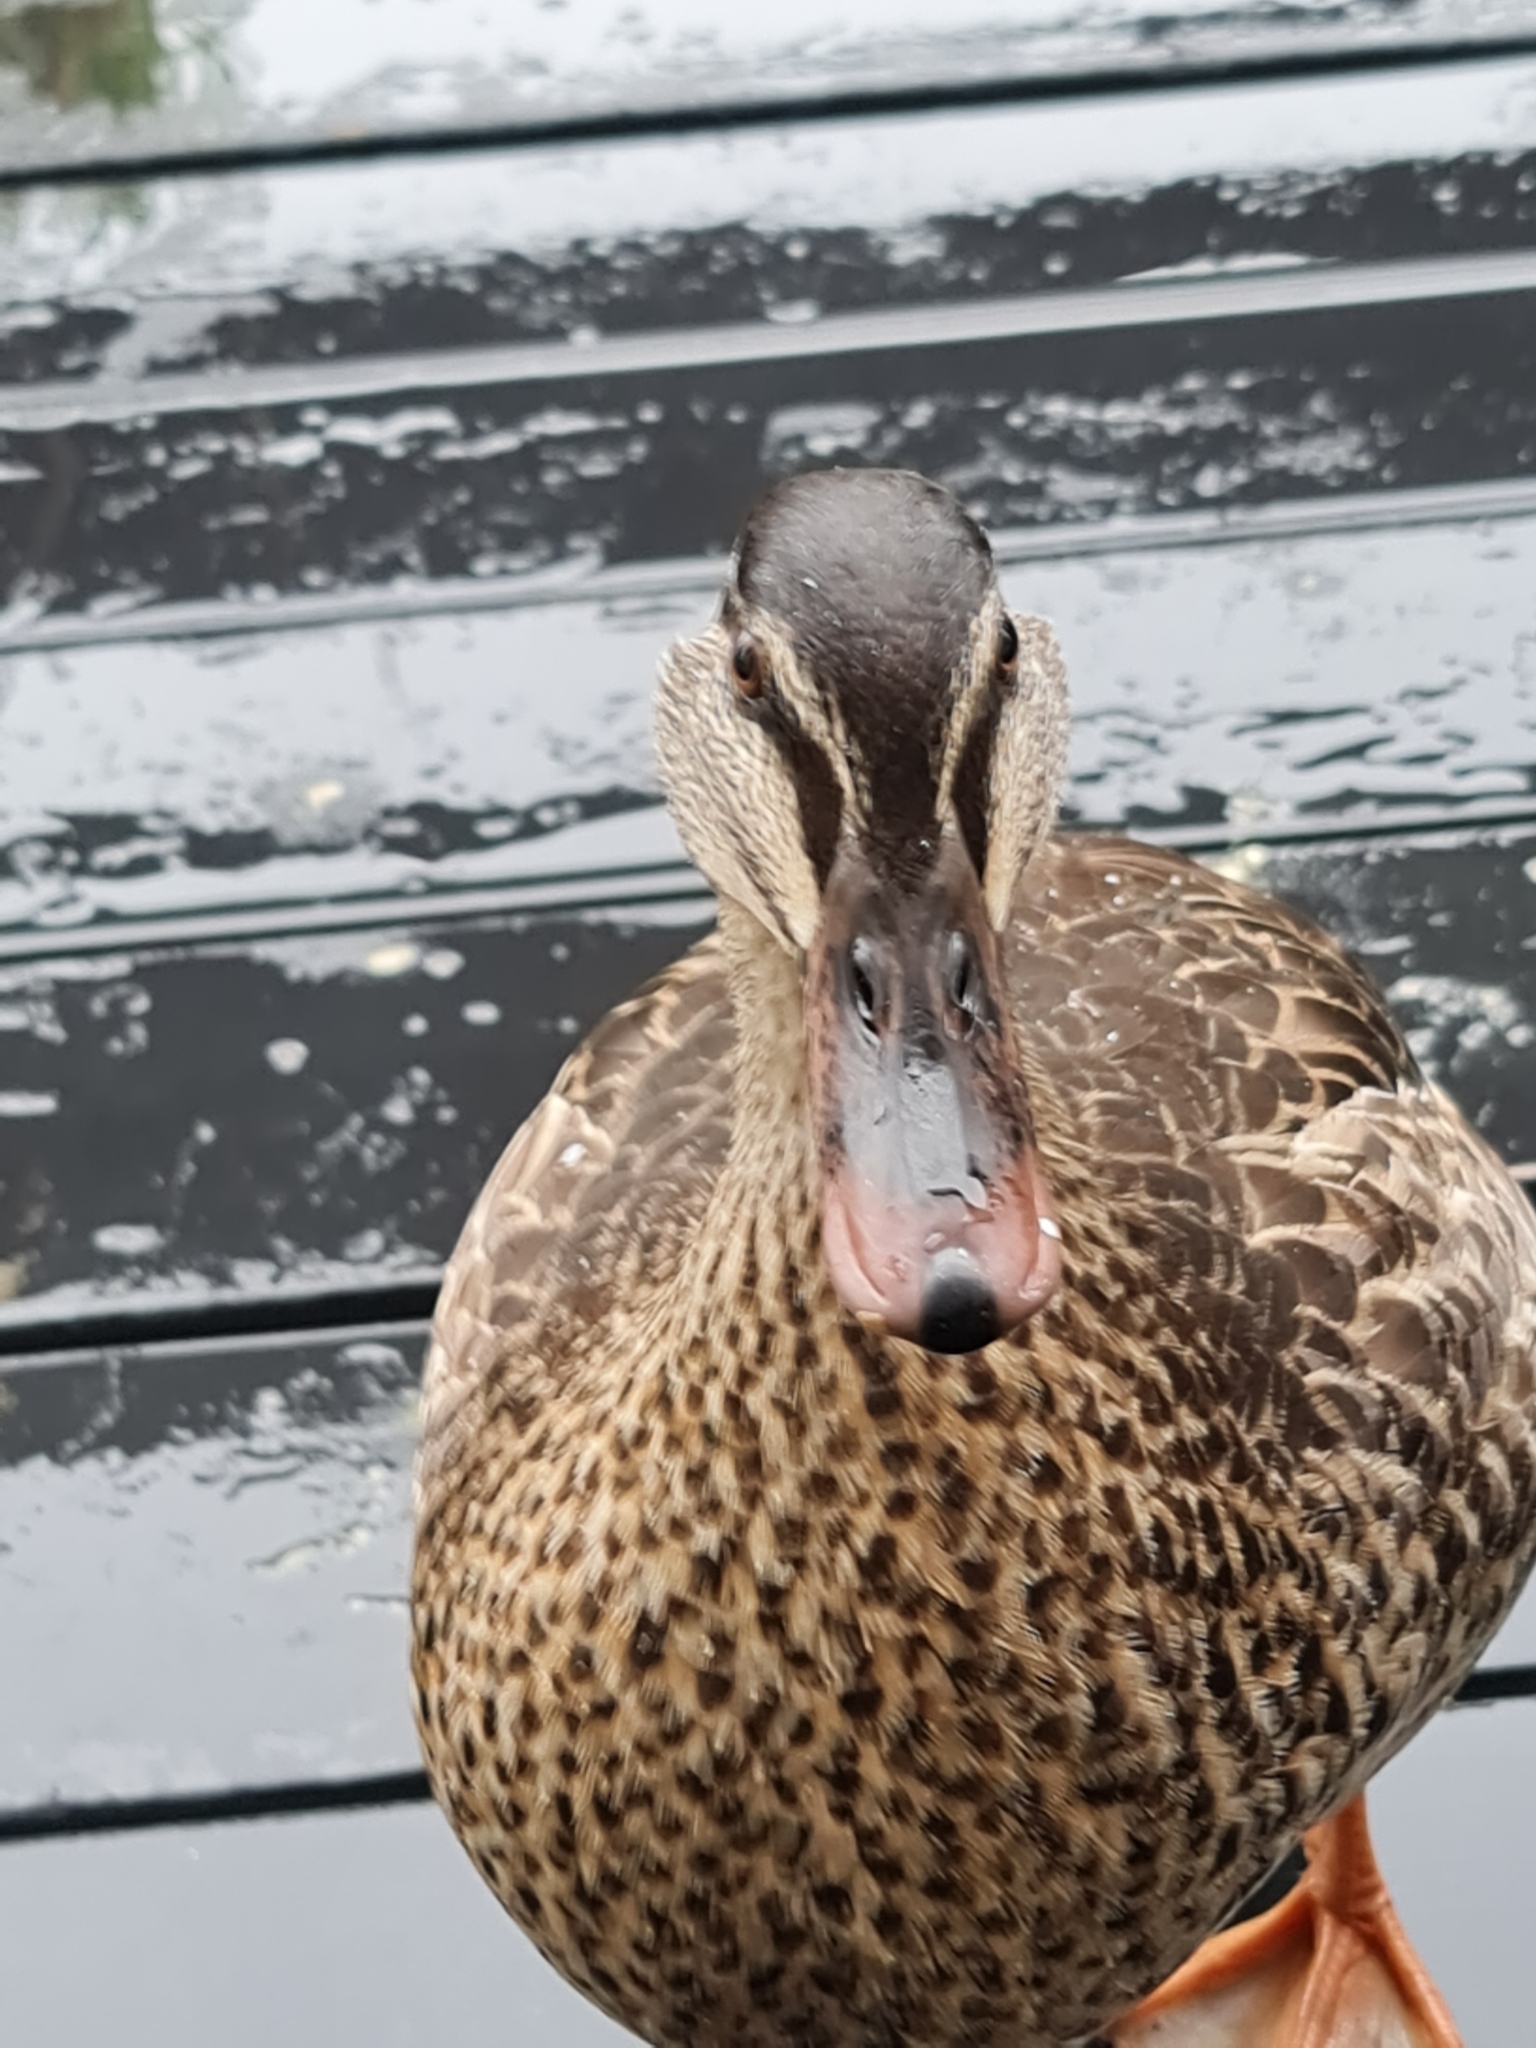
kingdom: Animalia
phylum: Chordata
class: Aves
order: Anseriformes
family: Anatidae
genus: Anas
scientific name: Anas
